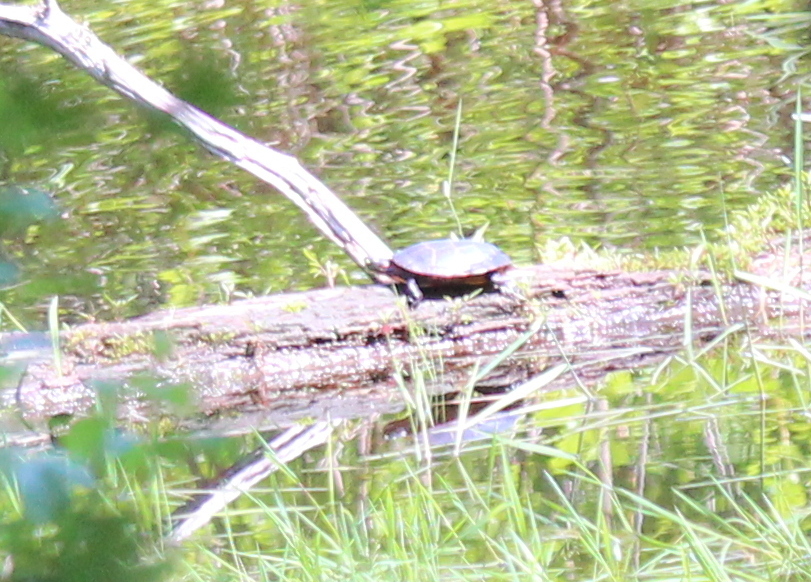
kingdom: Animalia
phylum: Chordata
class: Testudines
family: Emydidae
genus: Chrysemys
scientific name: Chrysemys picta
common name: Painted turtle
